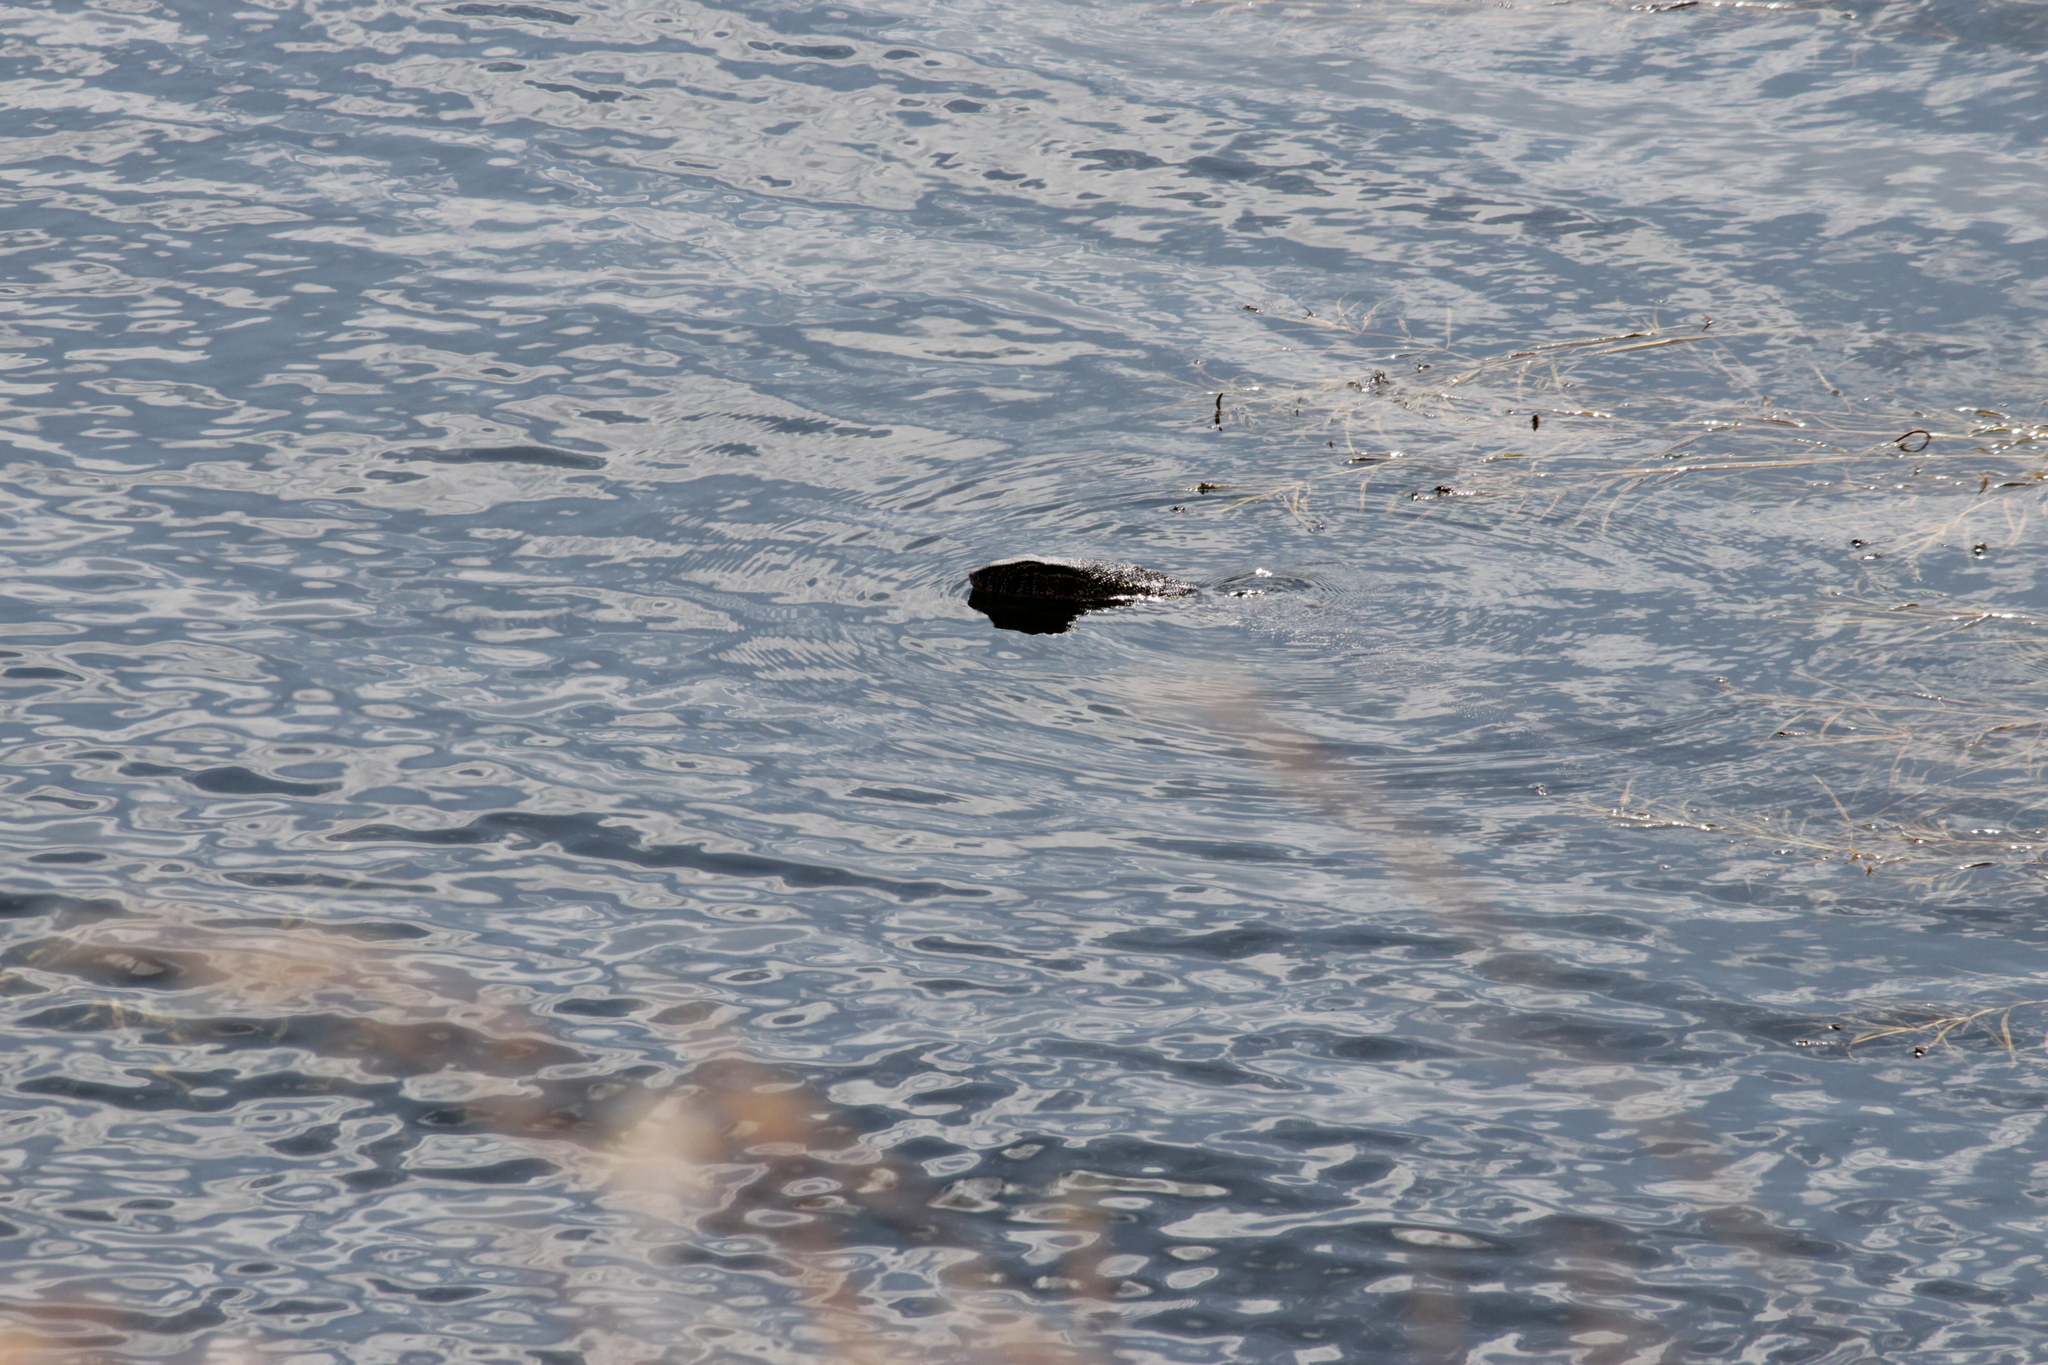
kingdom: Animalia
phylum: Chordata
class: Squamata
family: Varanidae
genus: Varanus
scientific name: Varanus niloticus
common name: Nile monitor
